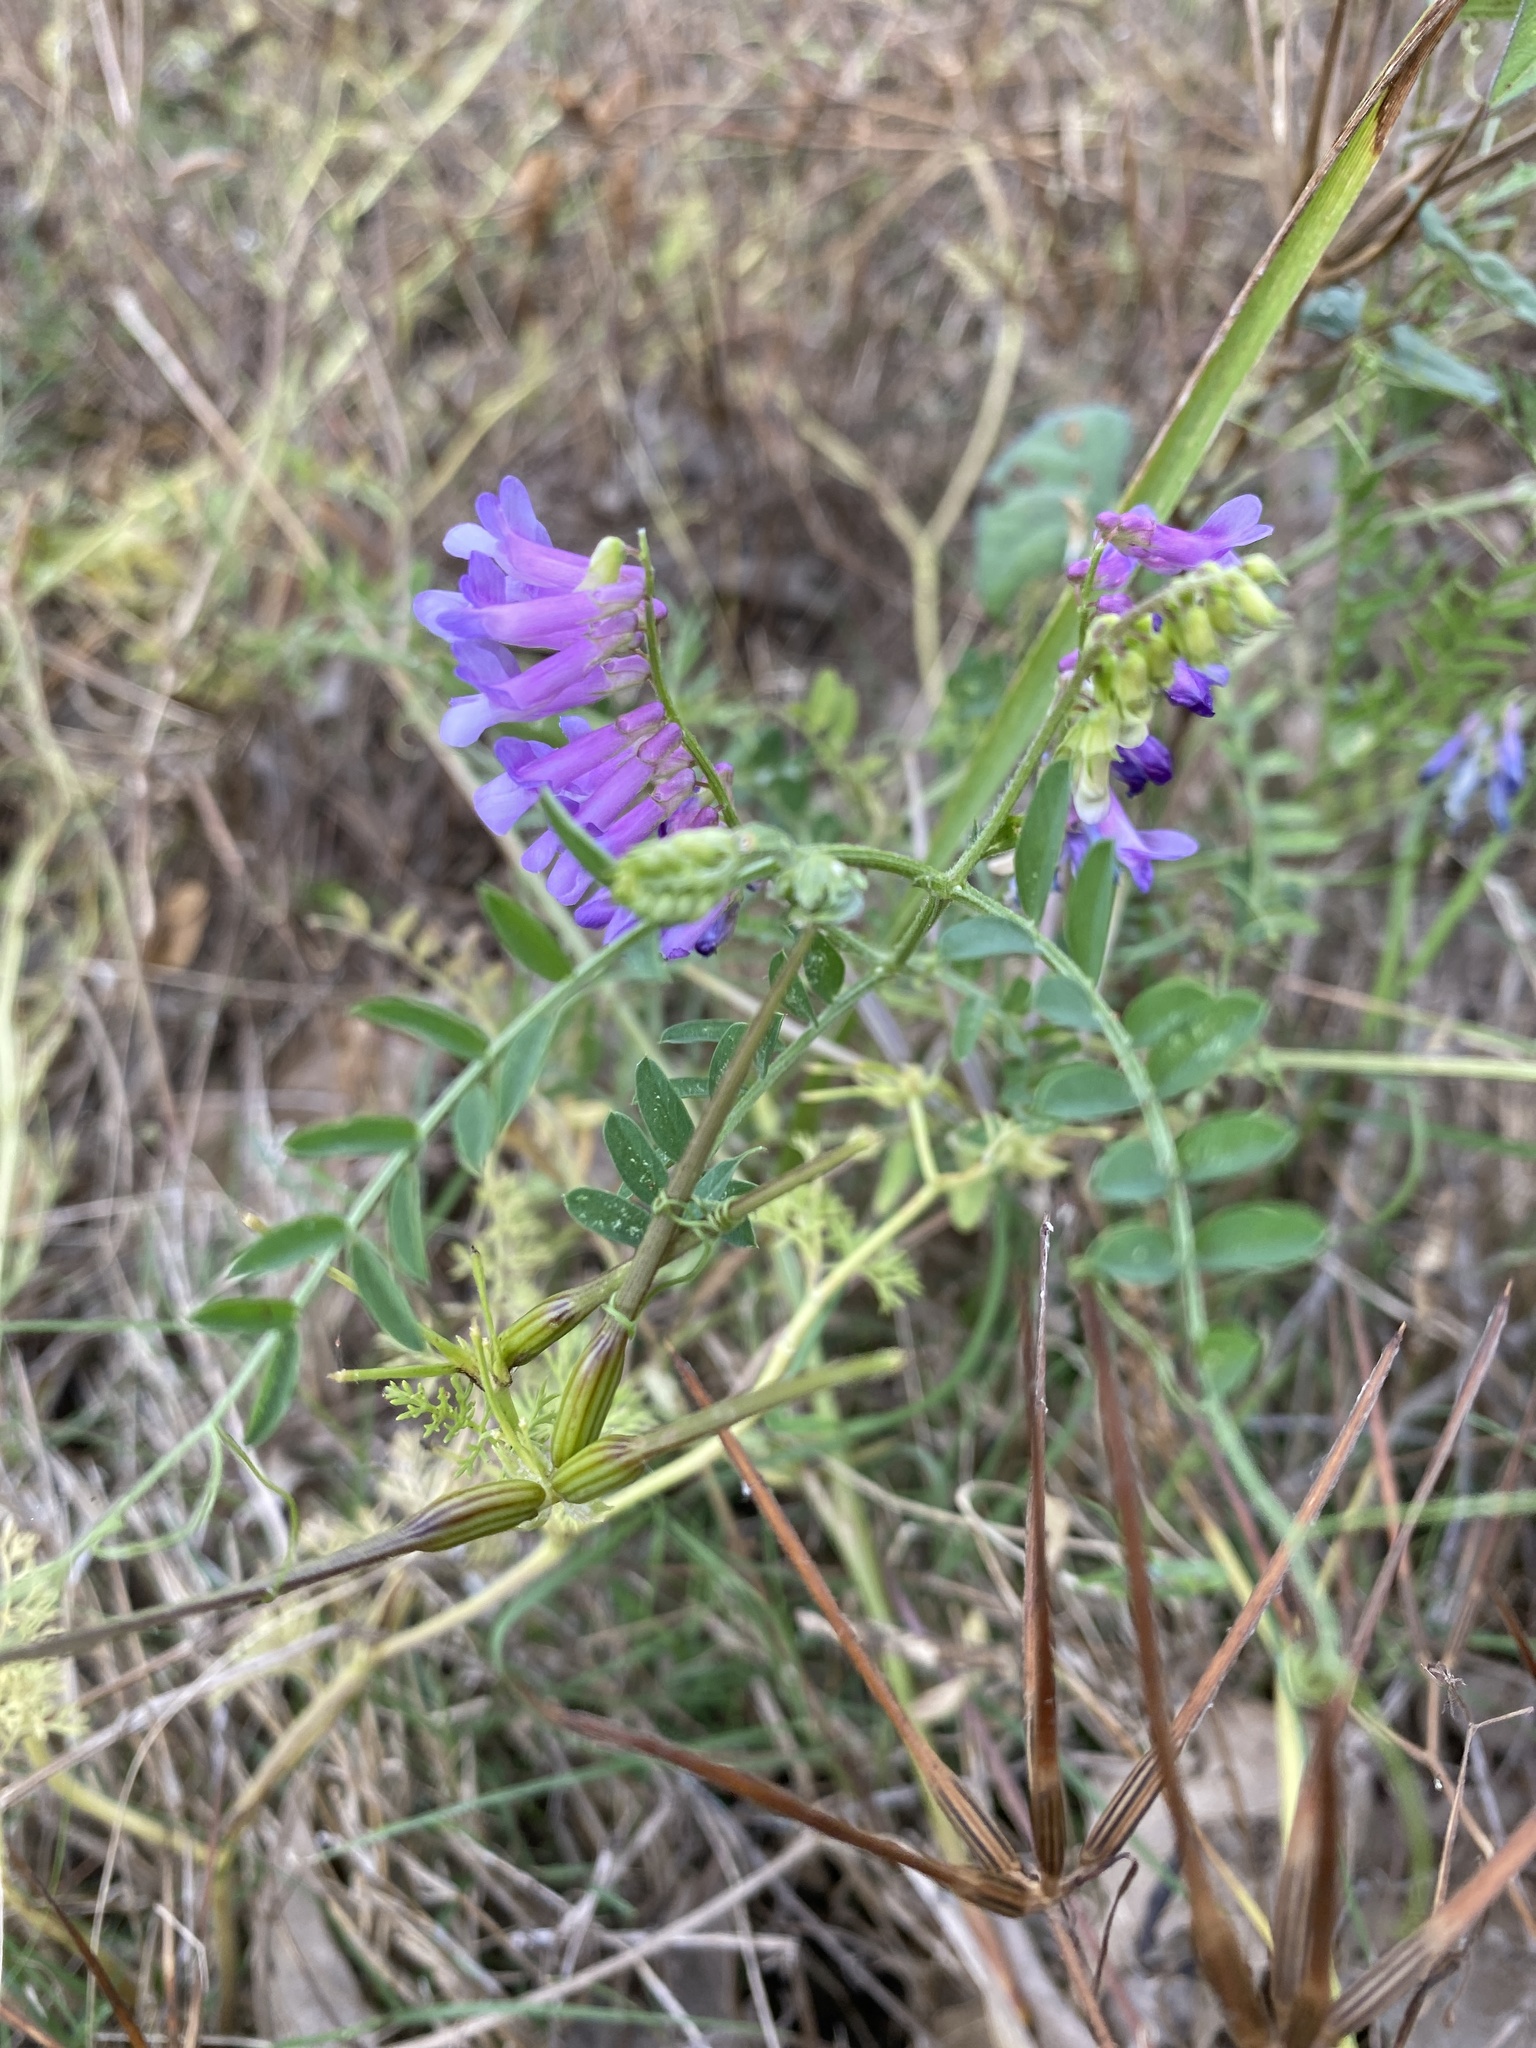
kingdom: Plantae
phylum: Tracheophyta
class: Magnoliopsida
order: Fabales
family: Fabaceae
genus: Vicia
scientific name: Vicia villosa
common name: Fodder vetch
